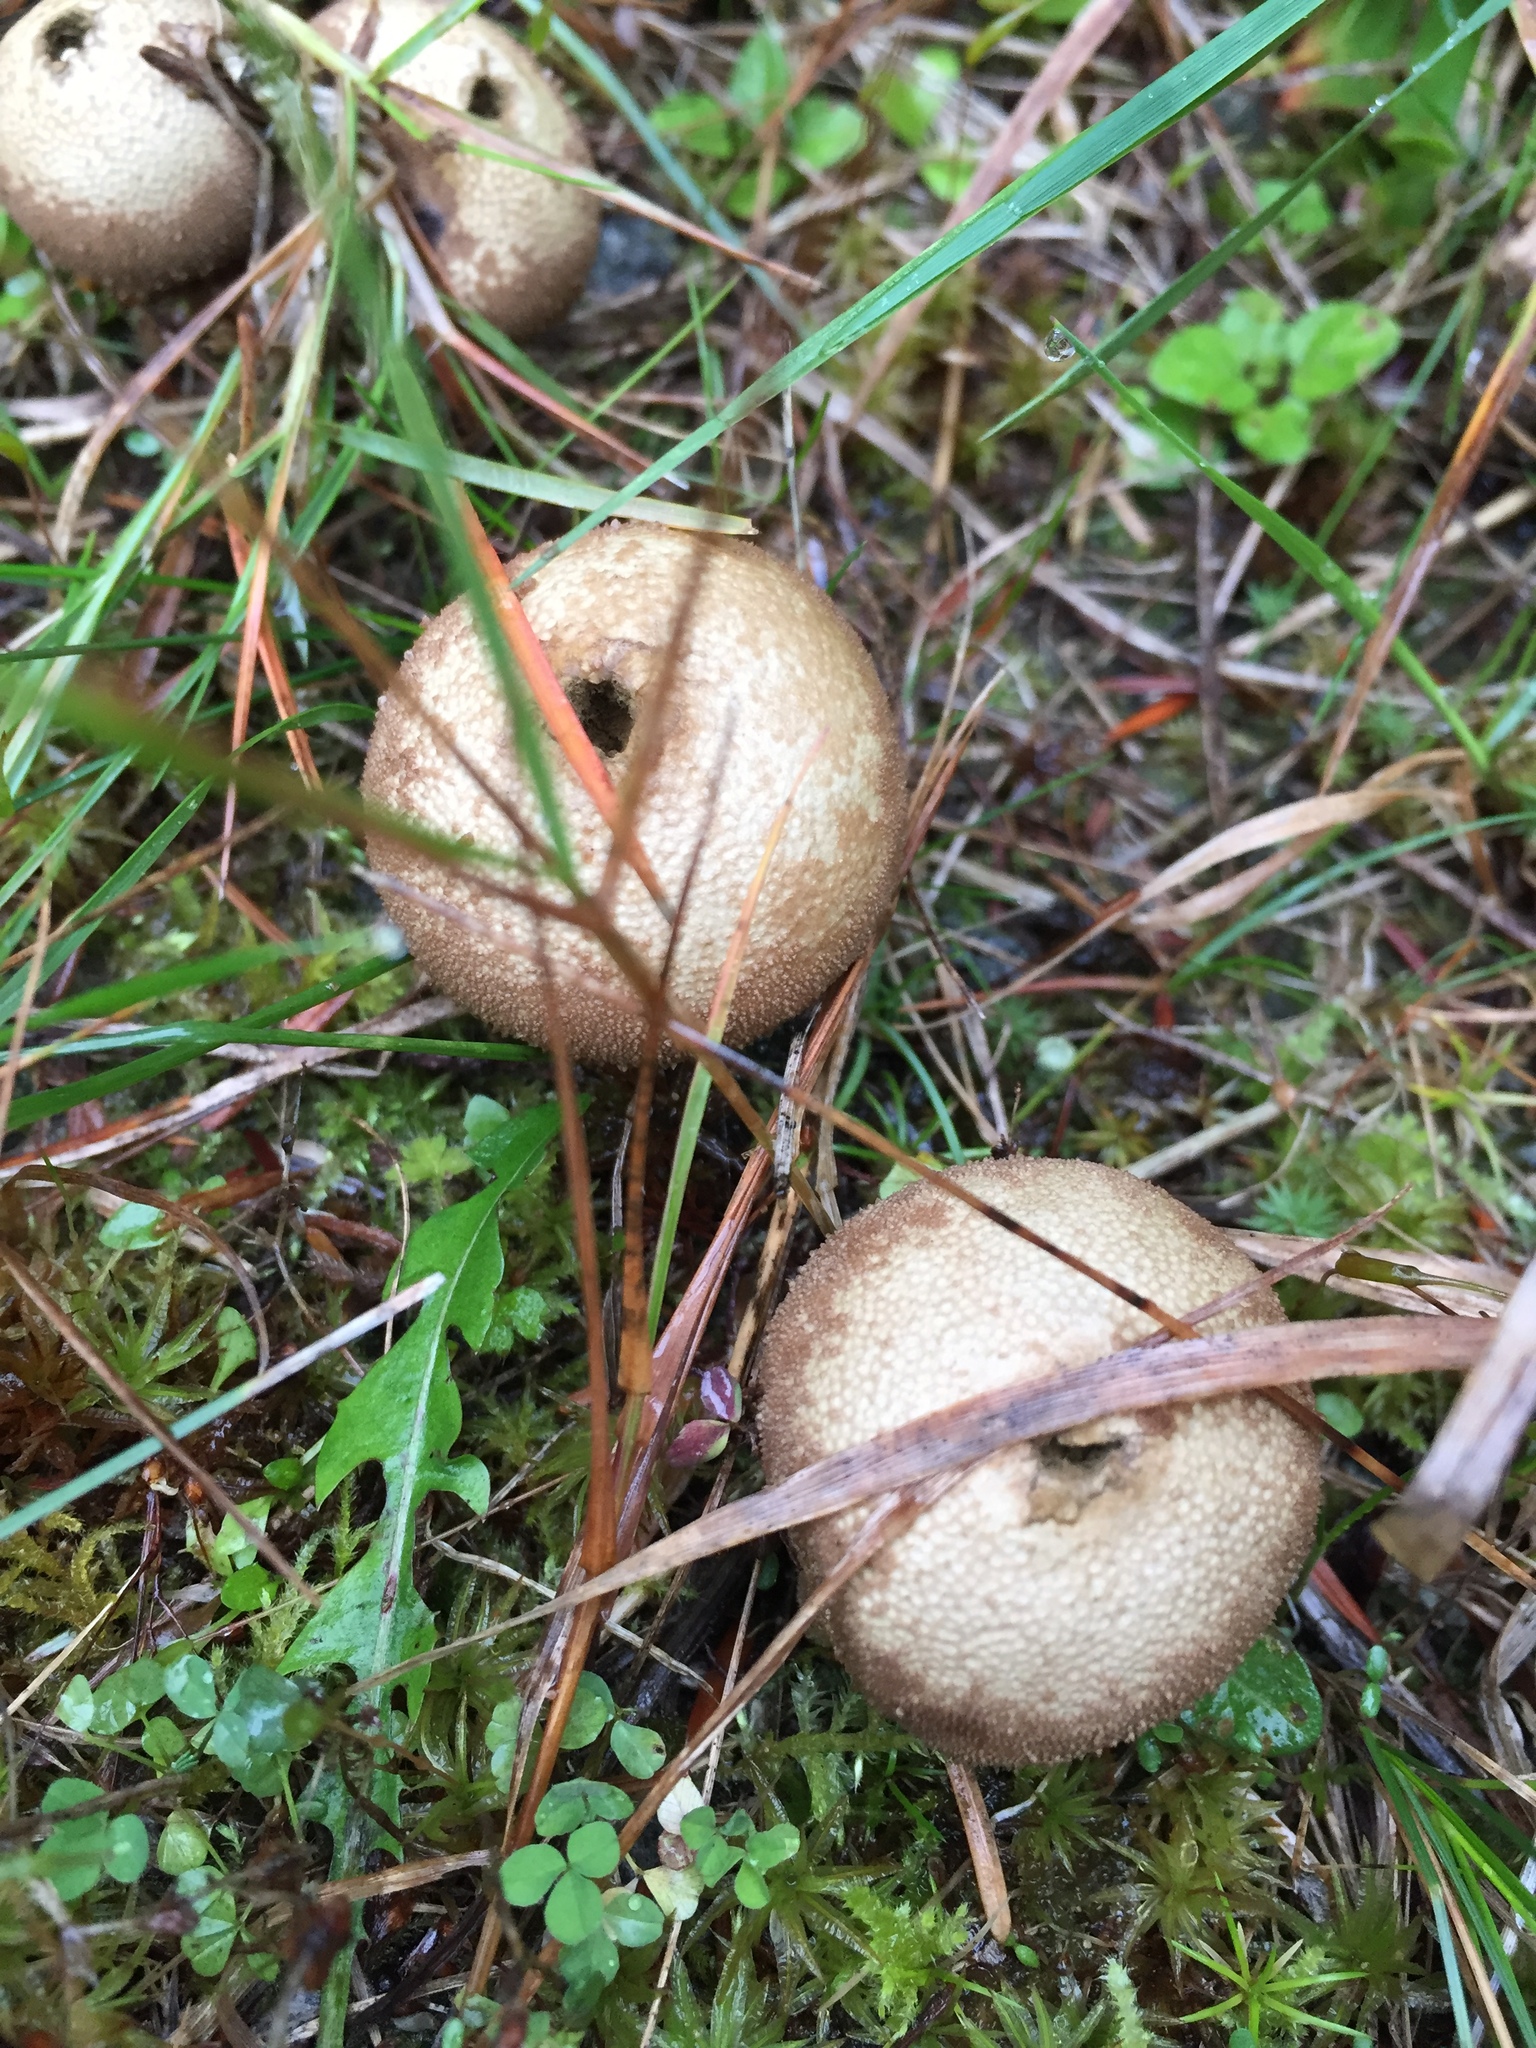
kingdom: Fungi
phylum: Basidiomycota
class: Agaricomycetes
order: Agaricales
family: Lycoperdaceae
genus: Apioperdon
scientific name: Apioperdon pyriforme
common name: Pear-shaped puffball
